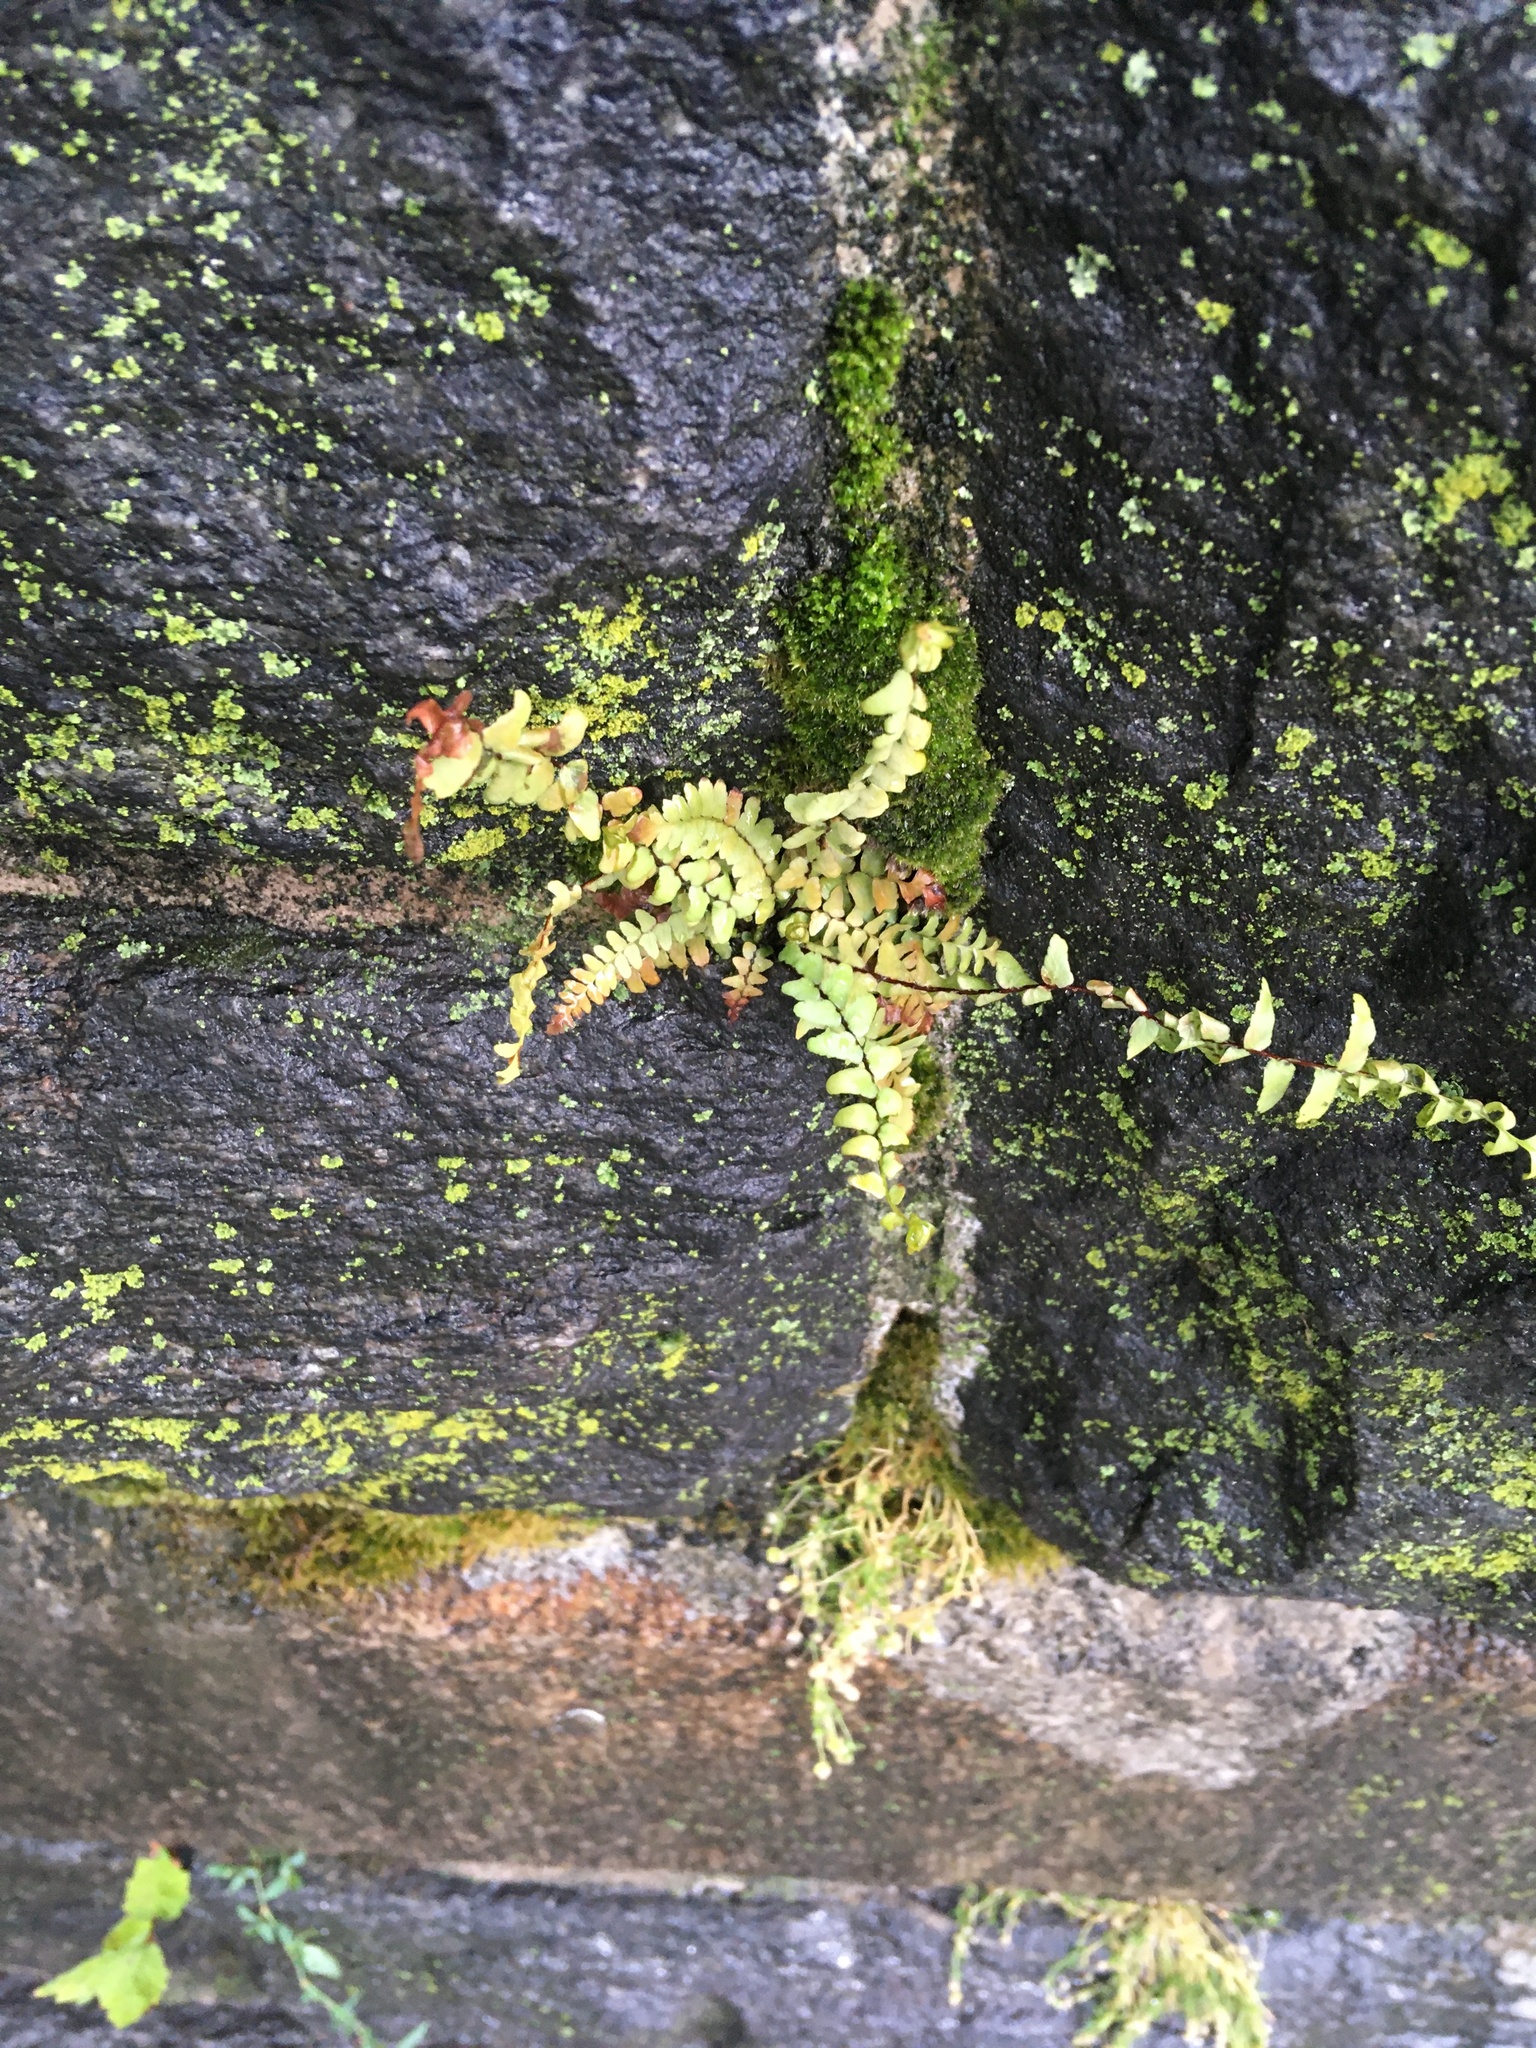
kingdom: Plantae
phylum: Tracheophyta
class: Polypodiopsida
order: Polypodiales
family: Aspleniaceae
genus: Asplenium
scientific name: Asplenium platyneuron
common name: Ebony spleenwort
